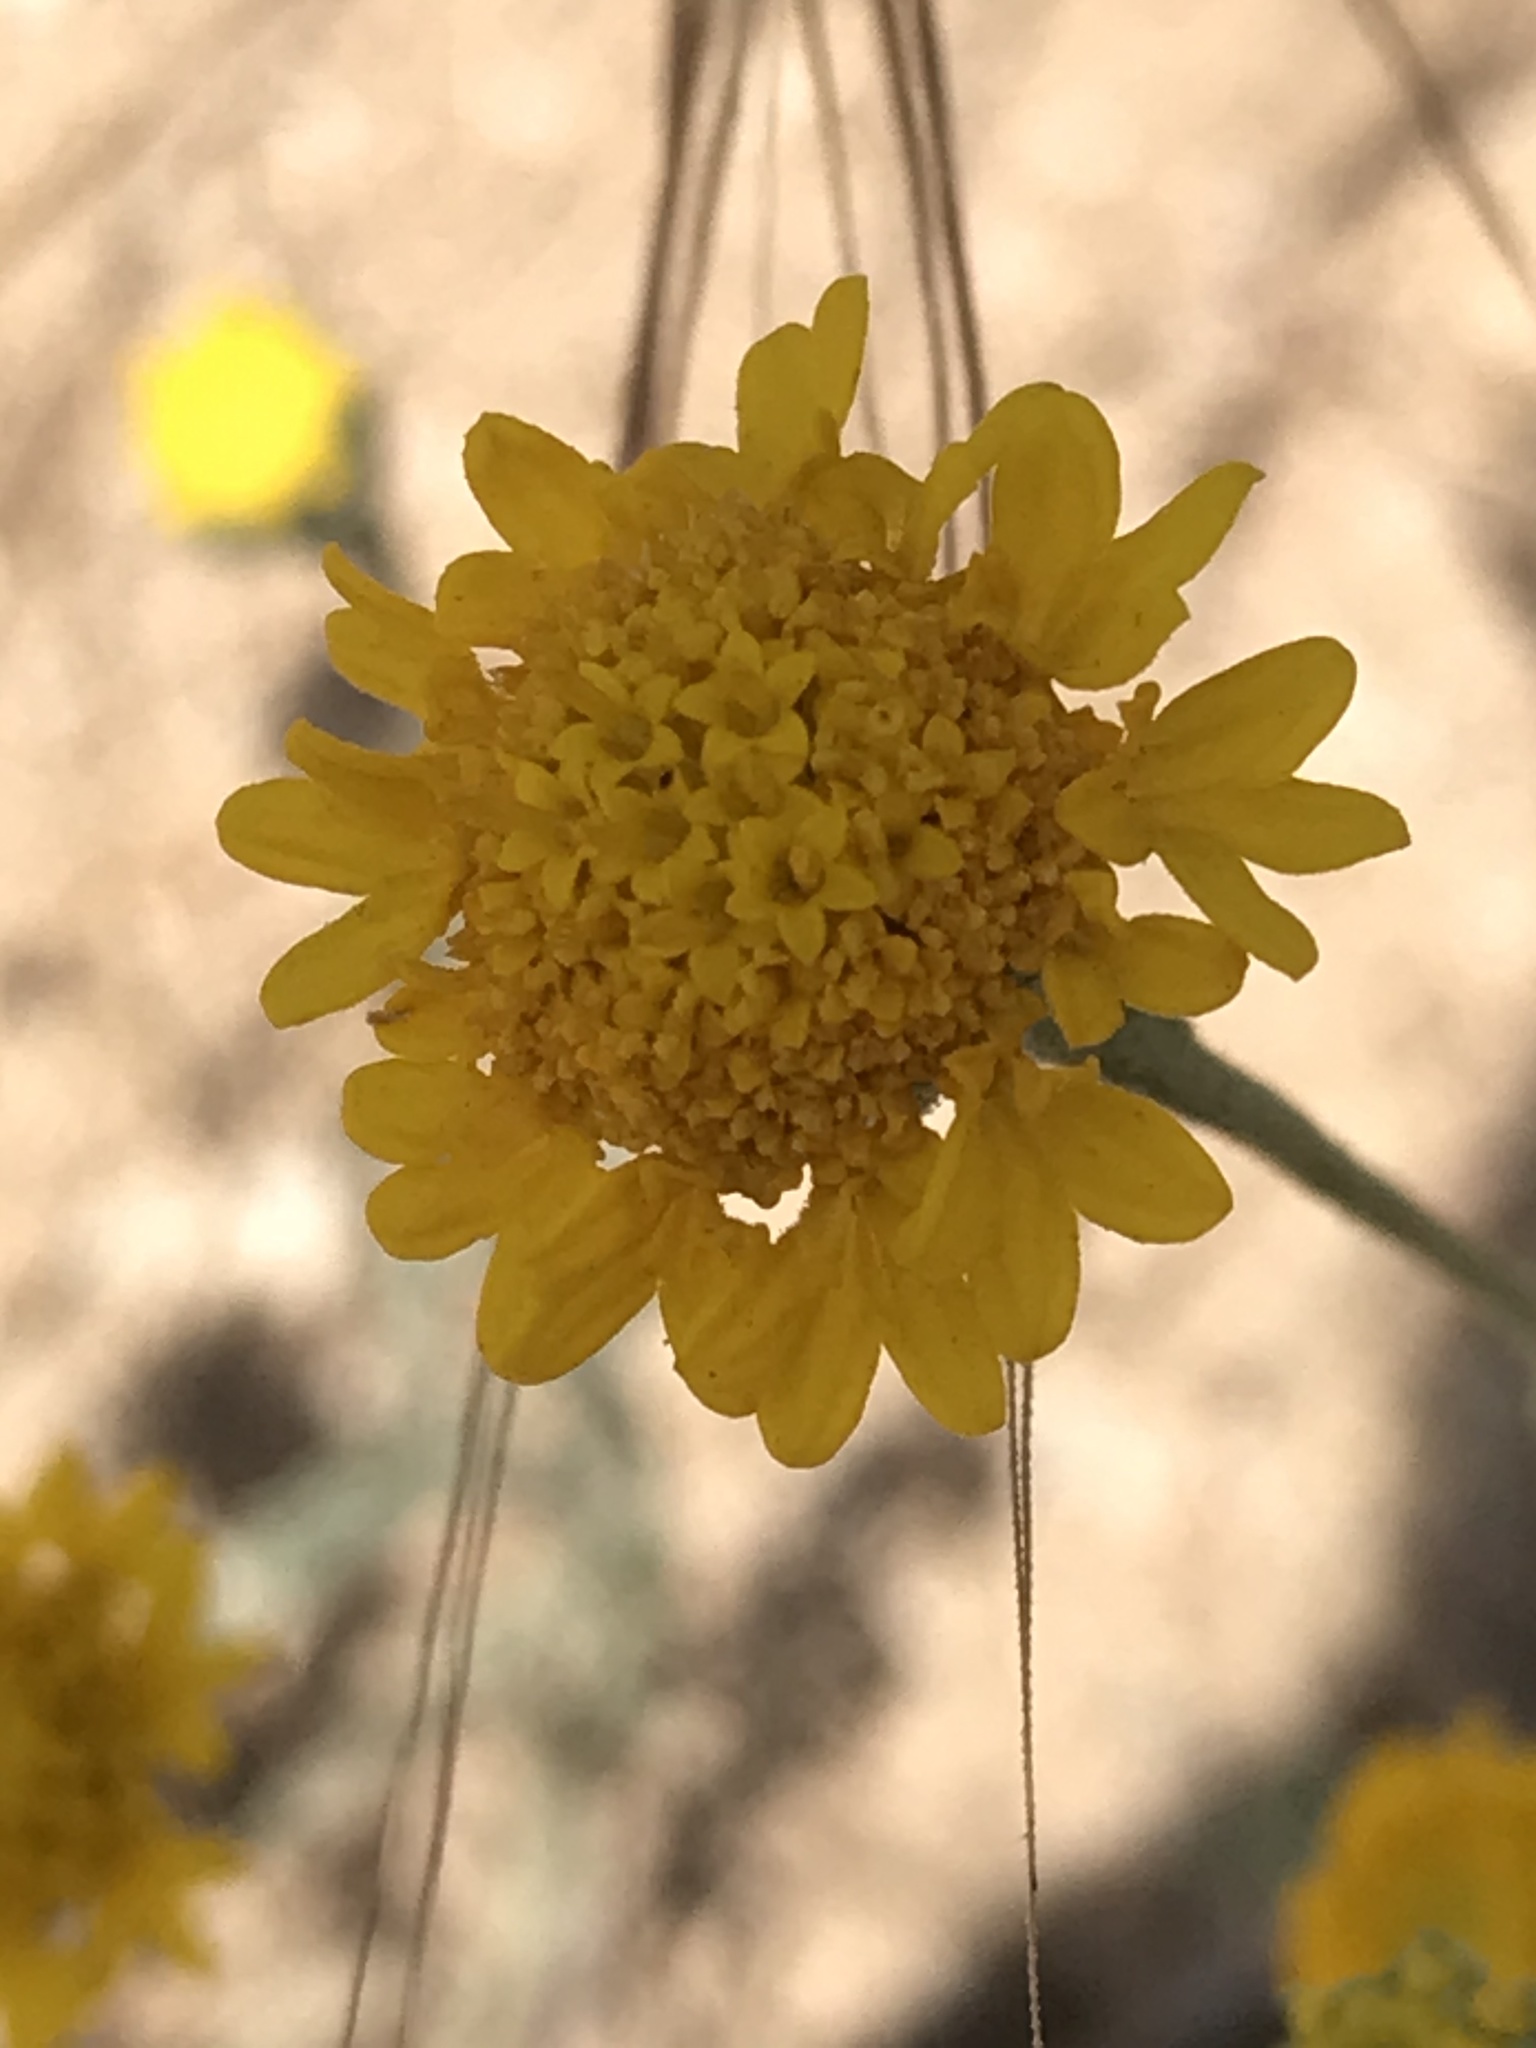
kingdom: Plantae
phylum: Tracheophyta
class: Magnoliopsida
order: Asterales
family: Asteraceae
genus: Chaenactis
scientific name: Chaenactis glabriuscula
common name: Yellow pincushion
